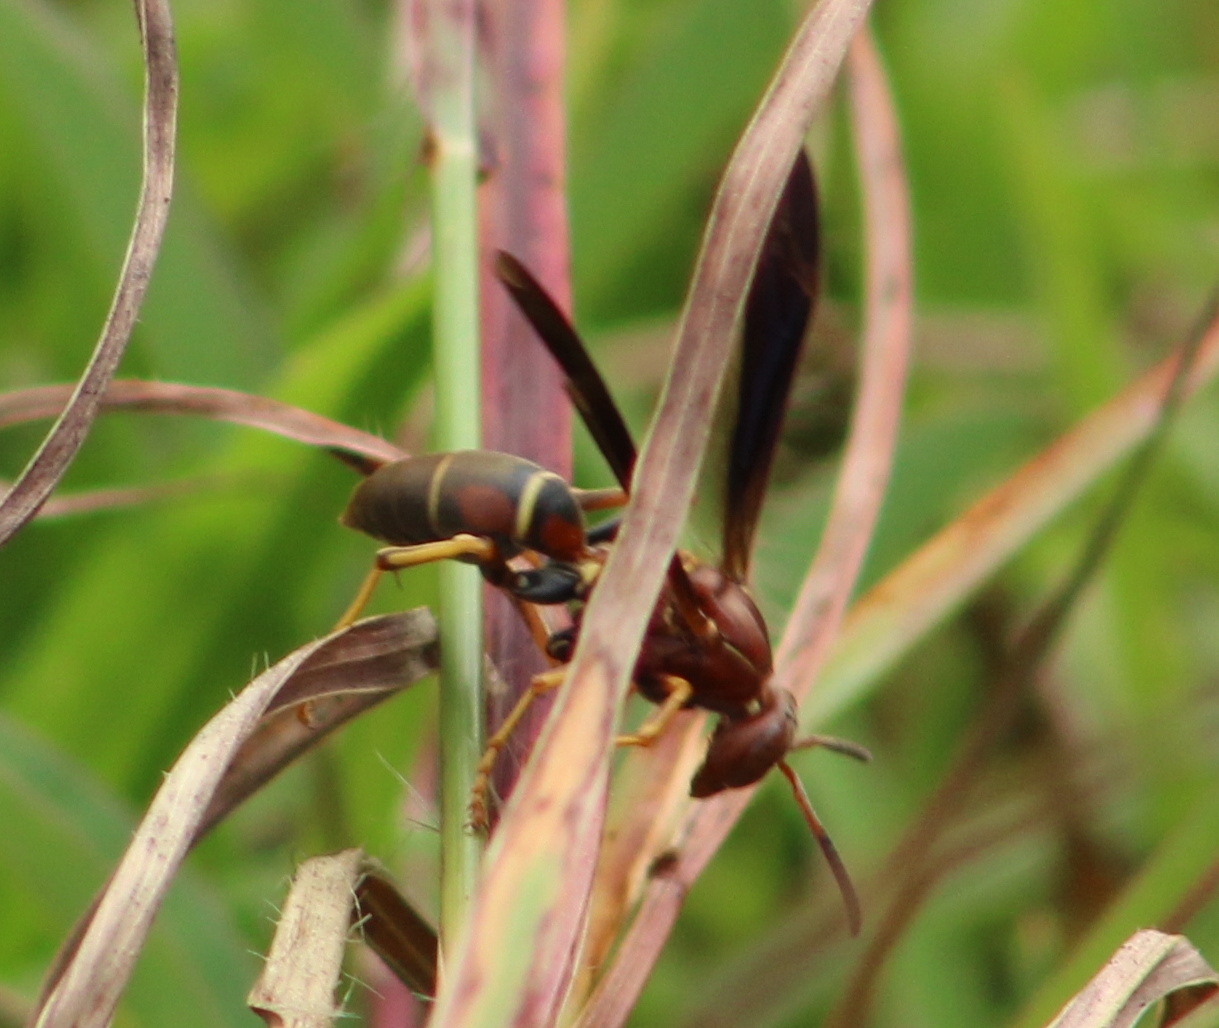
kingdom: Animalia
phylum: Arthropoda
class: Insecta
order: Hymenoptera
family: Eumenidae
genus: Polistes
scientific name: Polistes fuscatus
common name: Dark paper wasp
